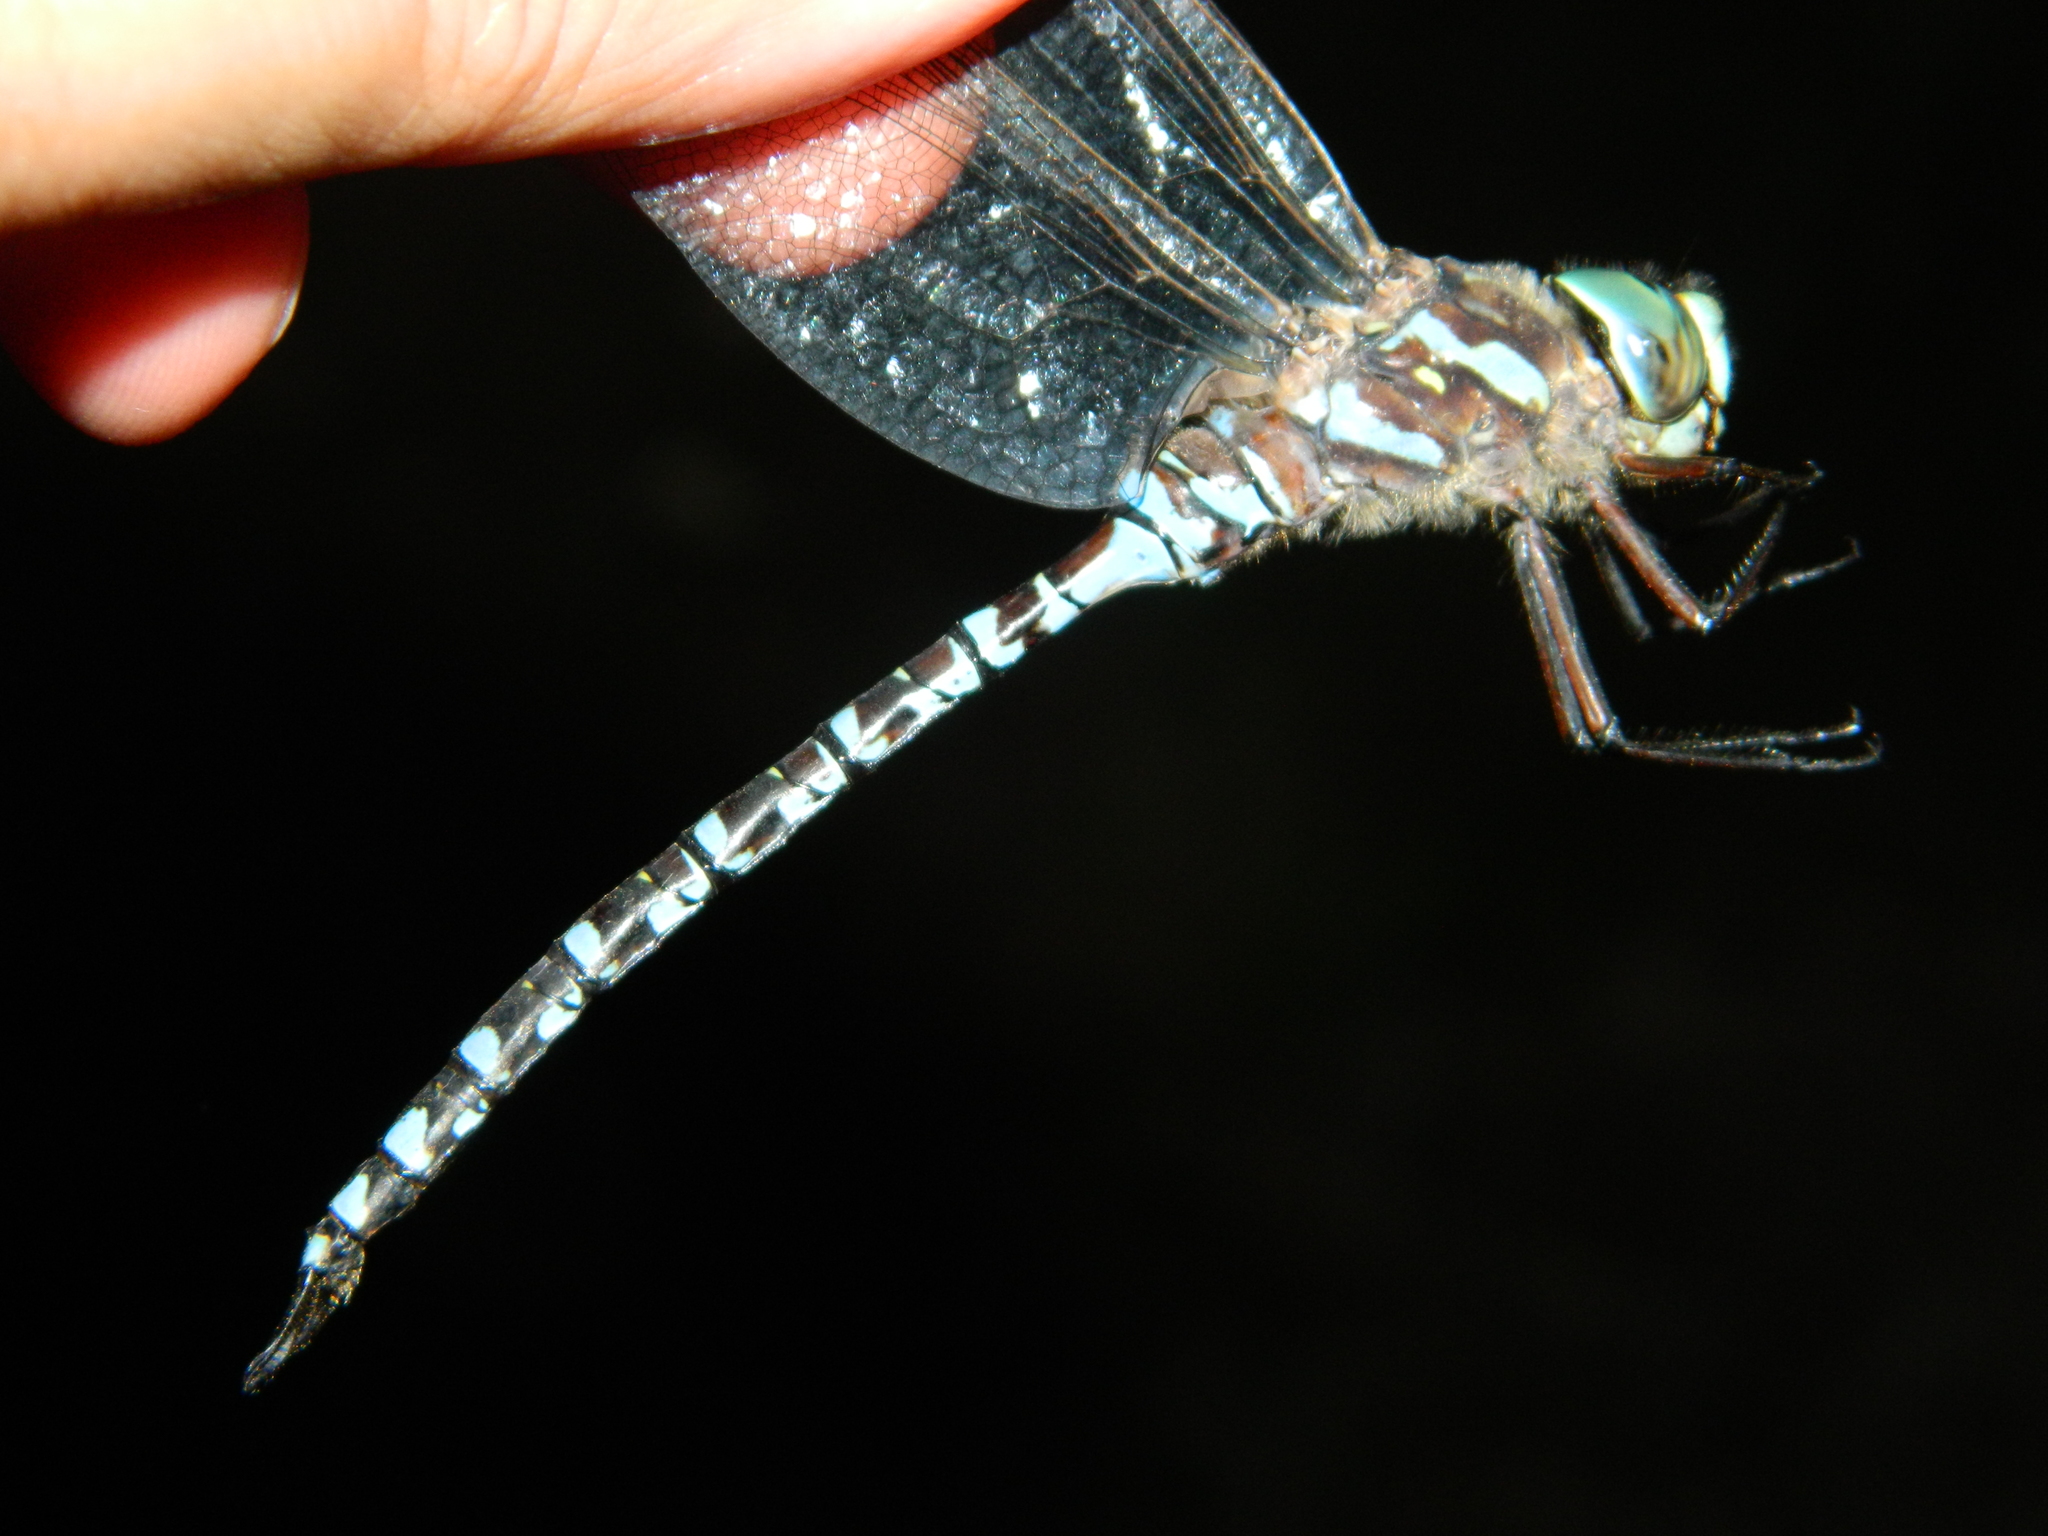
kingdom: Animalia
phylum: Arthropoda
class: Insecta
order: Odonata
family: Aeshnidae
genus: Aeshna
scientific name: Aeshna canadensis
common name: Canada darner
